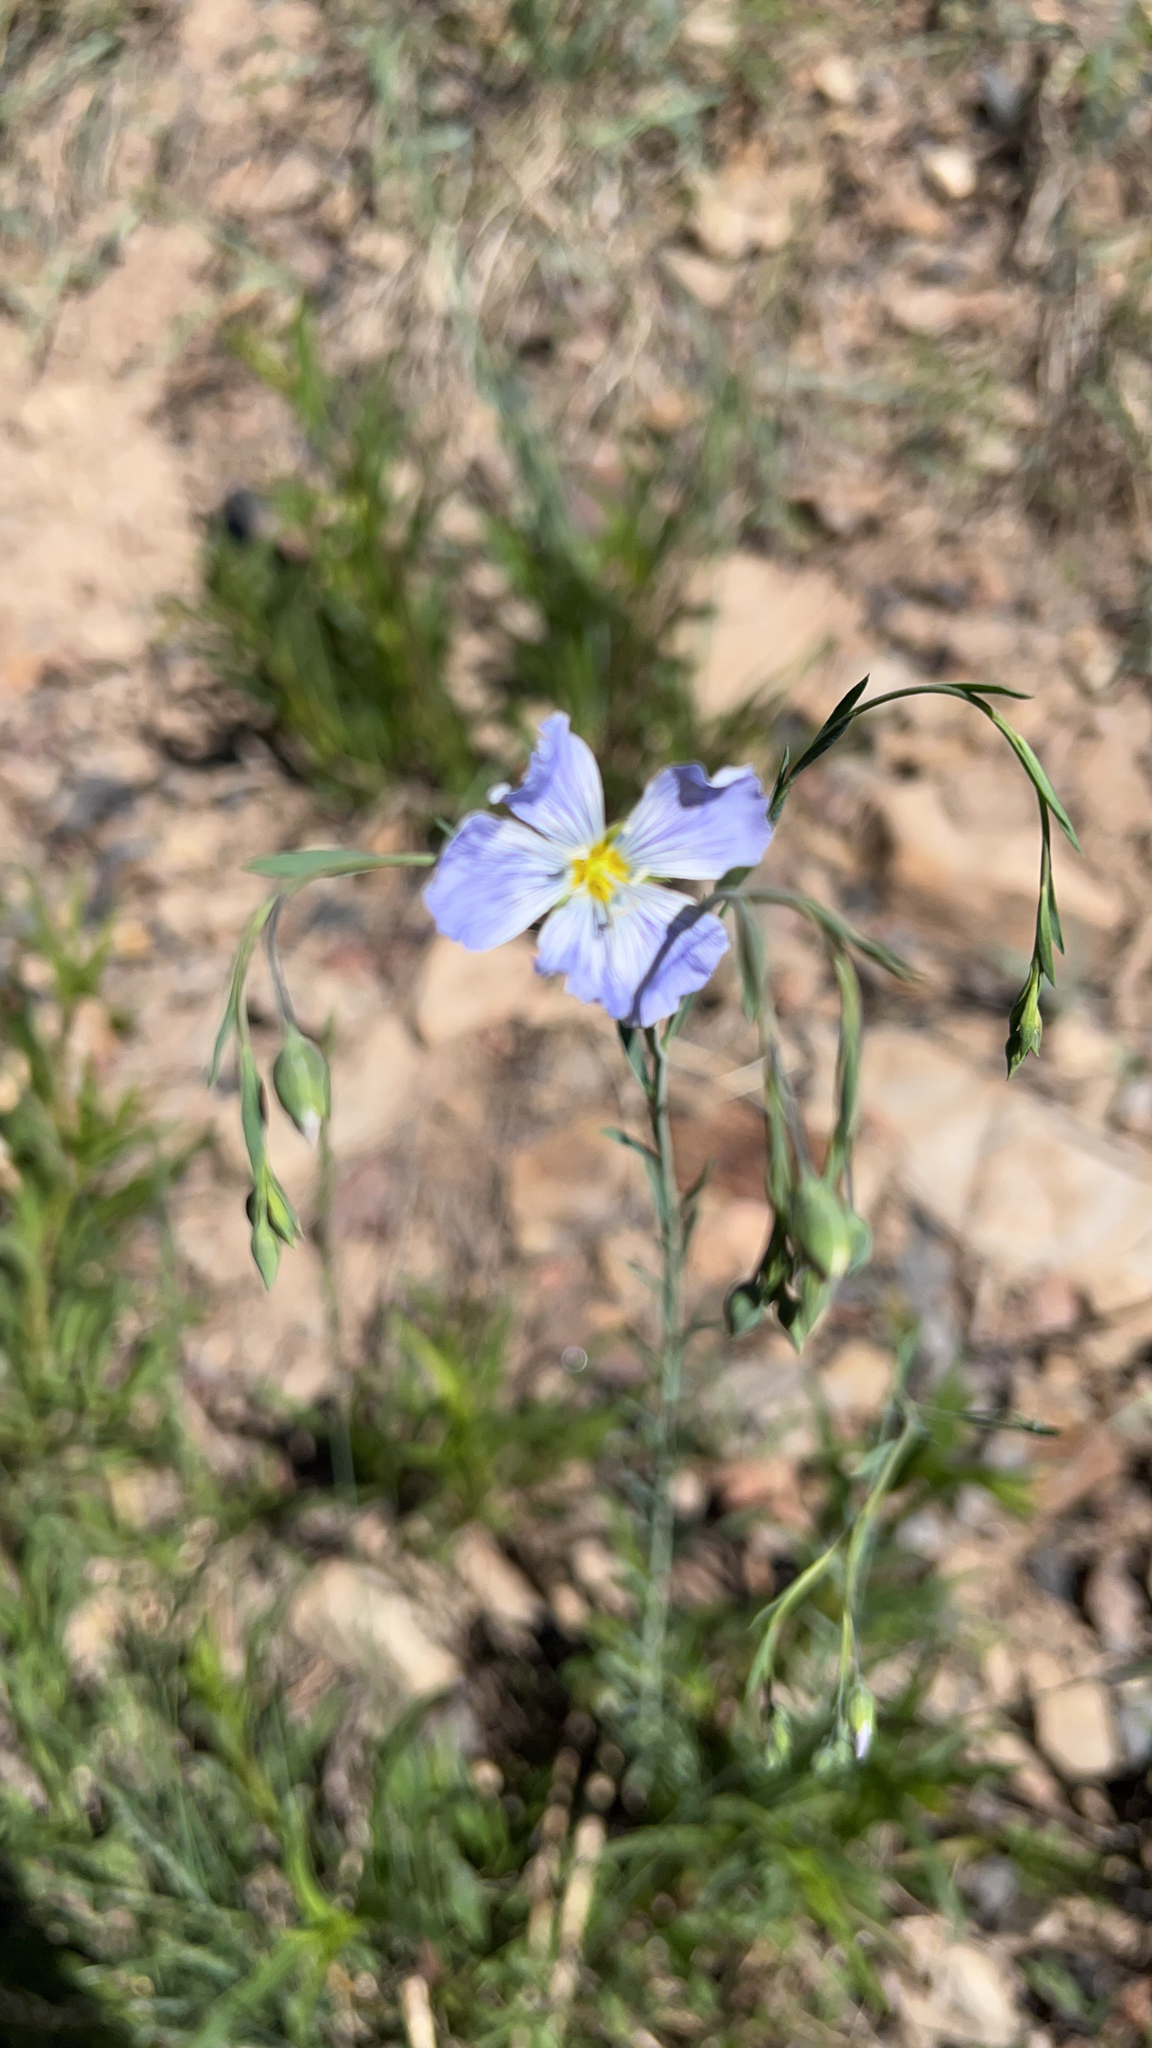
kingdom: Plantae
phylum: Tracheophyta
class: Magnoliopsida
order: Malpighiales
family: Linaceae
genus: Linum
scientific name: Linum lewisii
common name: Prairie flax
